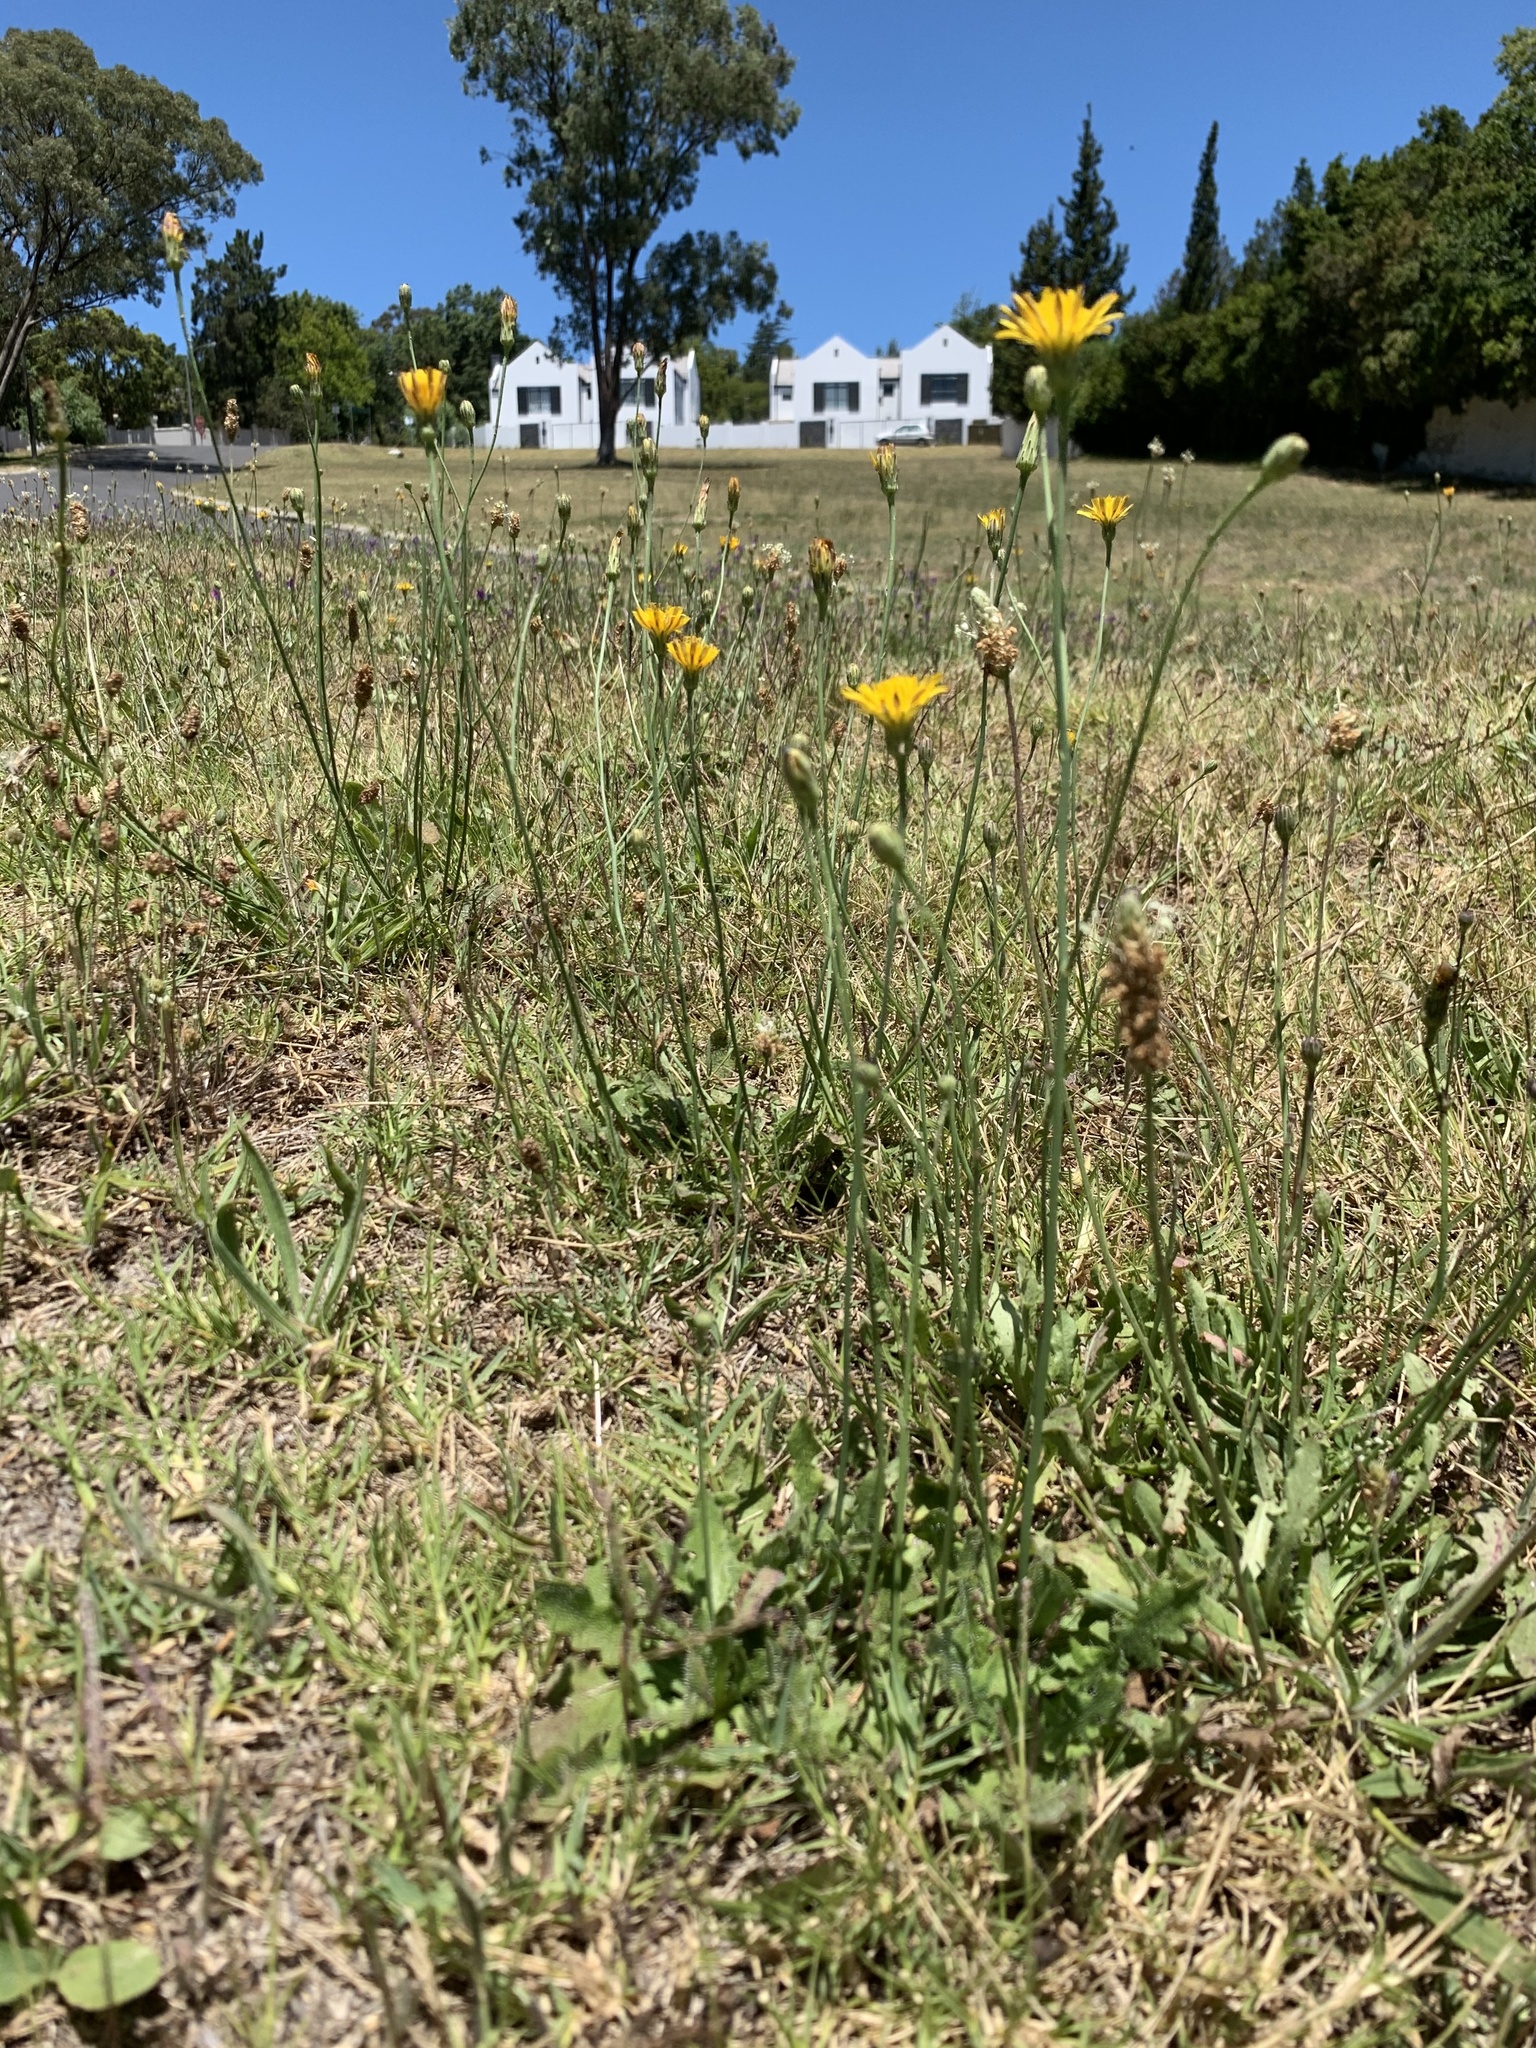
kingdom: Plantae
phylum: Tracheophyta
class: Magnoliopsida
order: Asterales
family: Asteraceae
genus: Hypochaeris
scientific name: Hypochaeris radicata
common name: Flatweed
